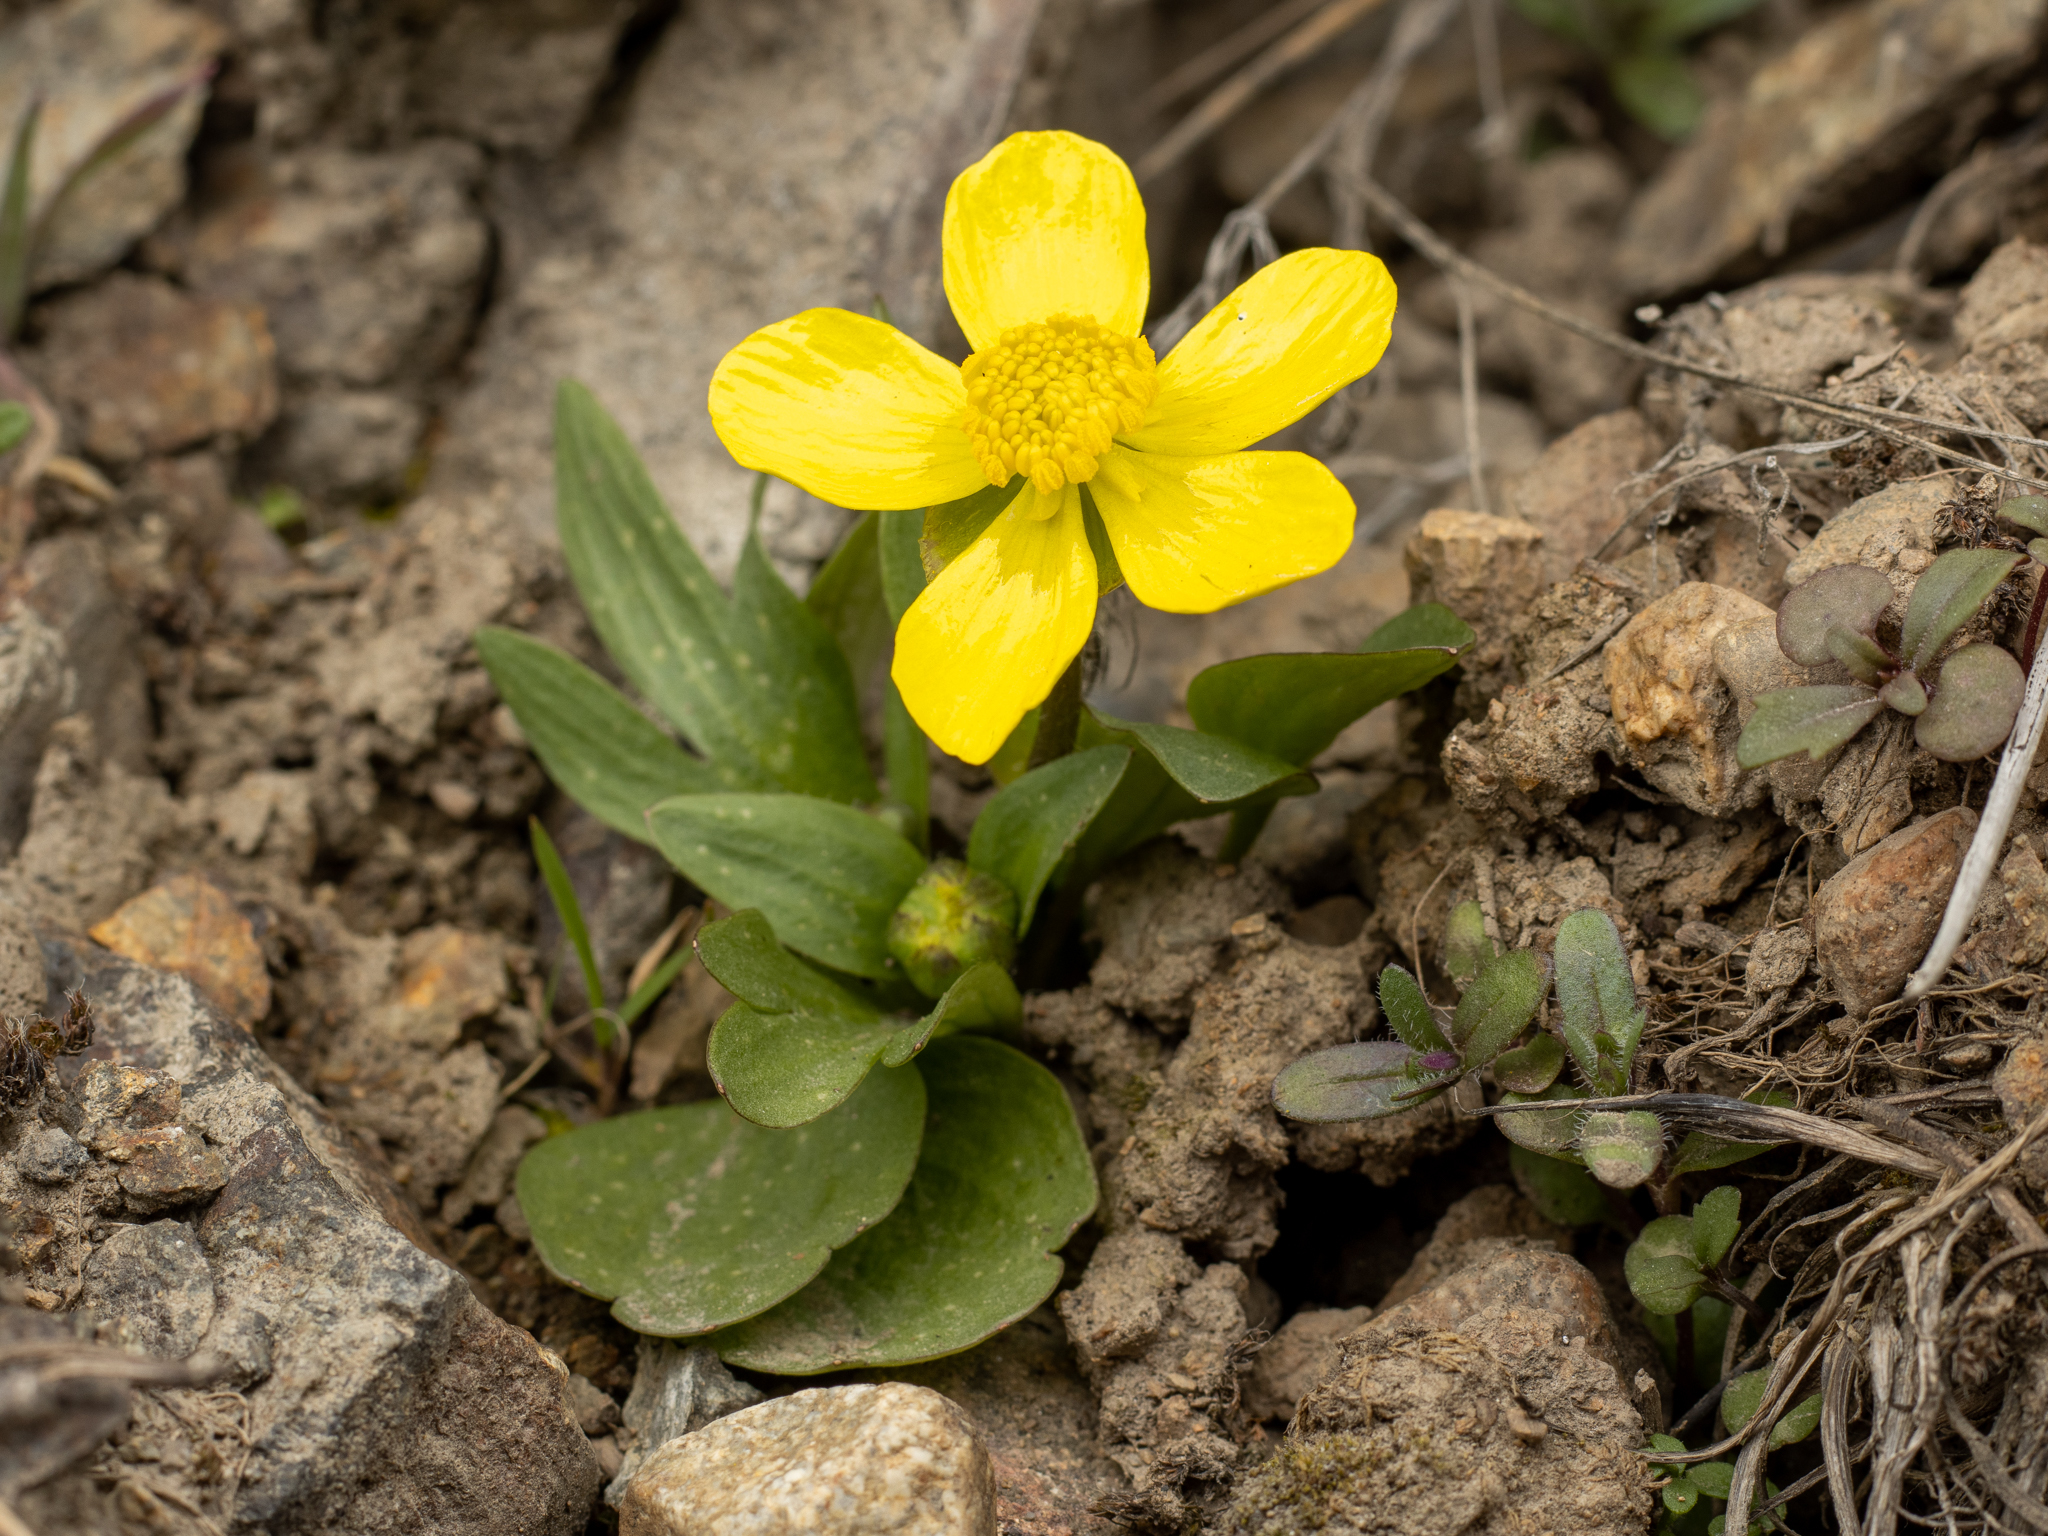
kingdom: Plantae
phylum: Tracheophyta
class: Magnoliopsida
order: Ranunculales
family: Ranunculaceae
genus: Ranunculus
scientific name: Ranunculus glaberrimus
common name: Sagebrush buttercup
